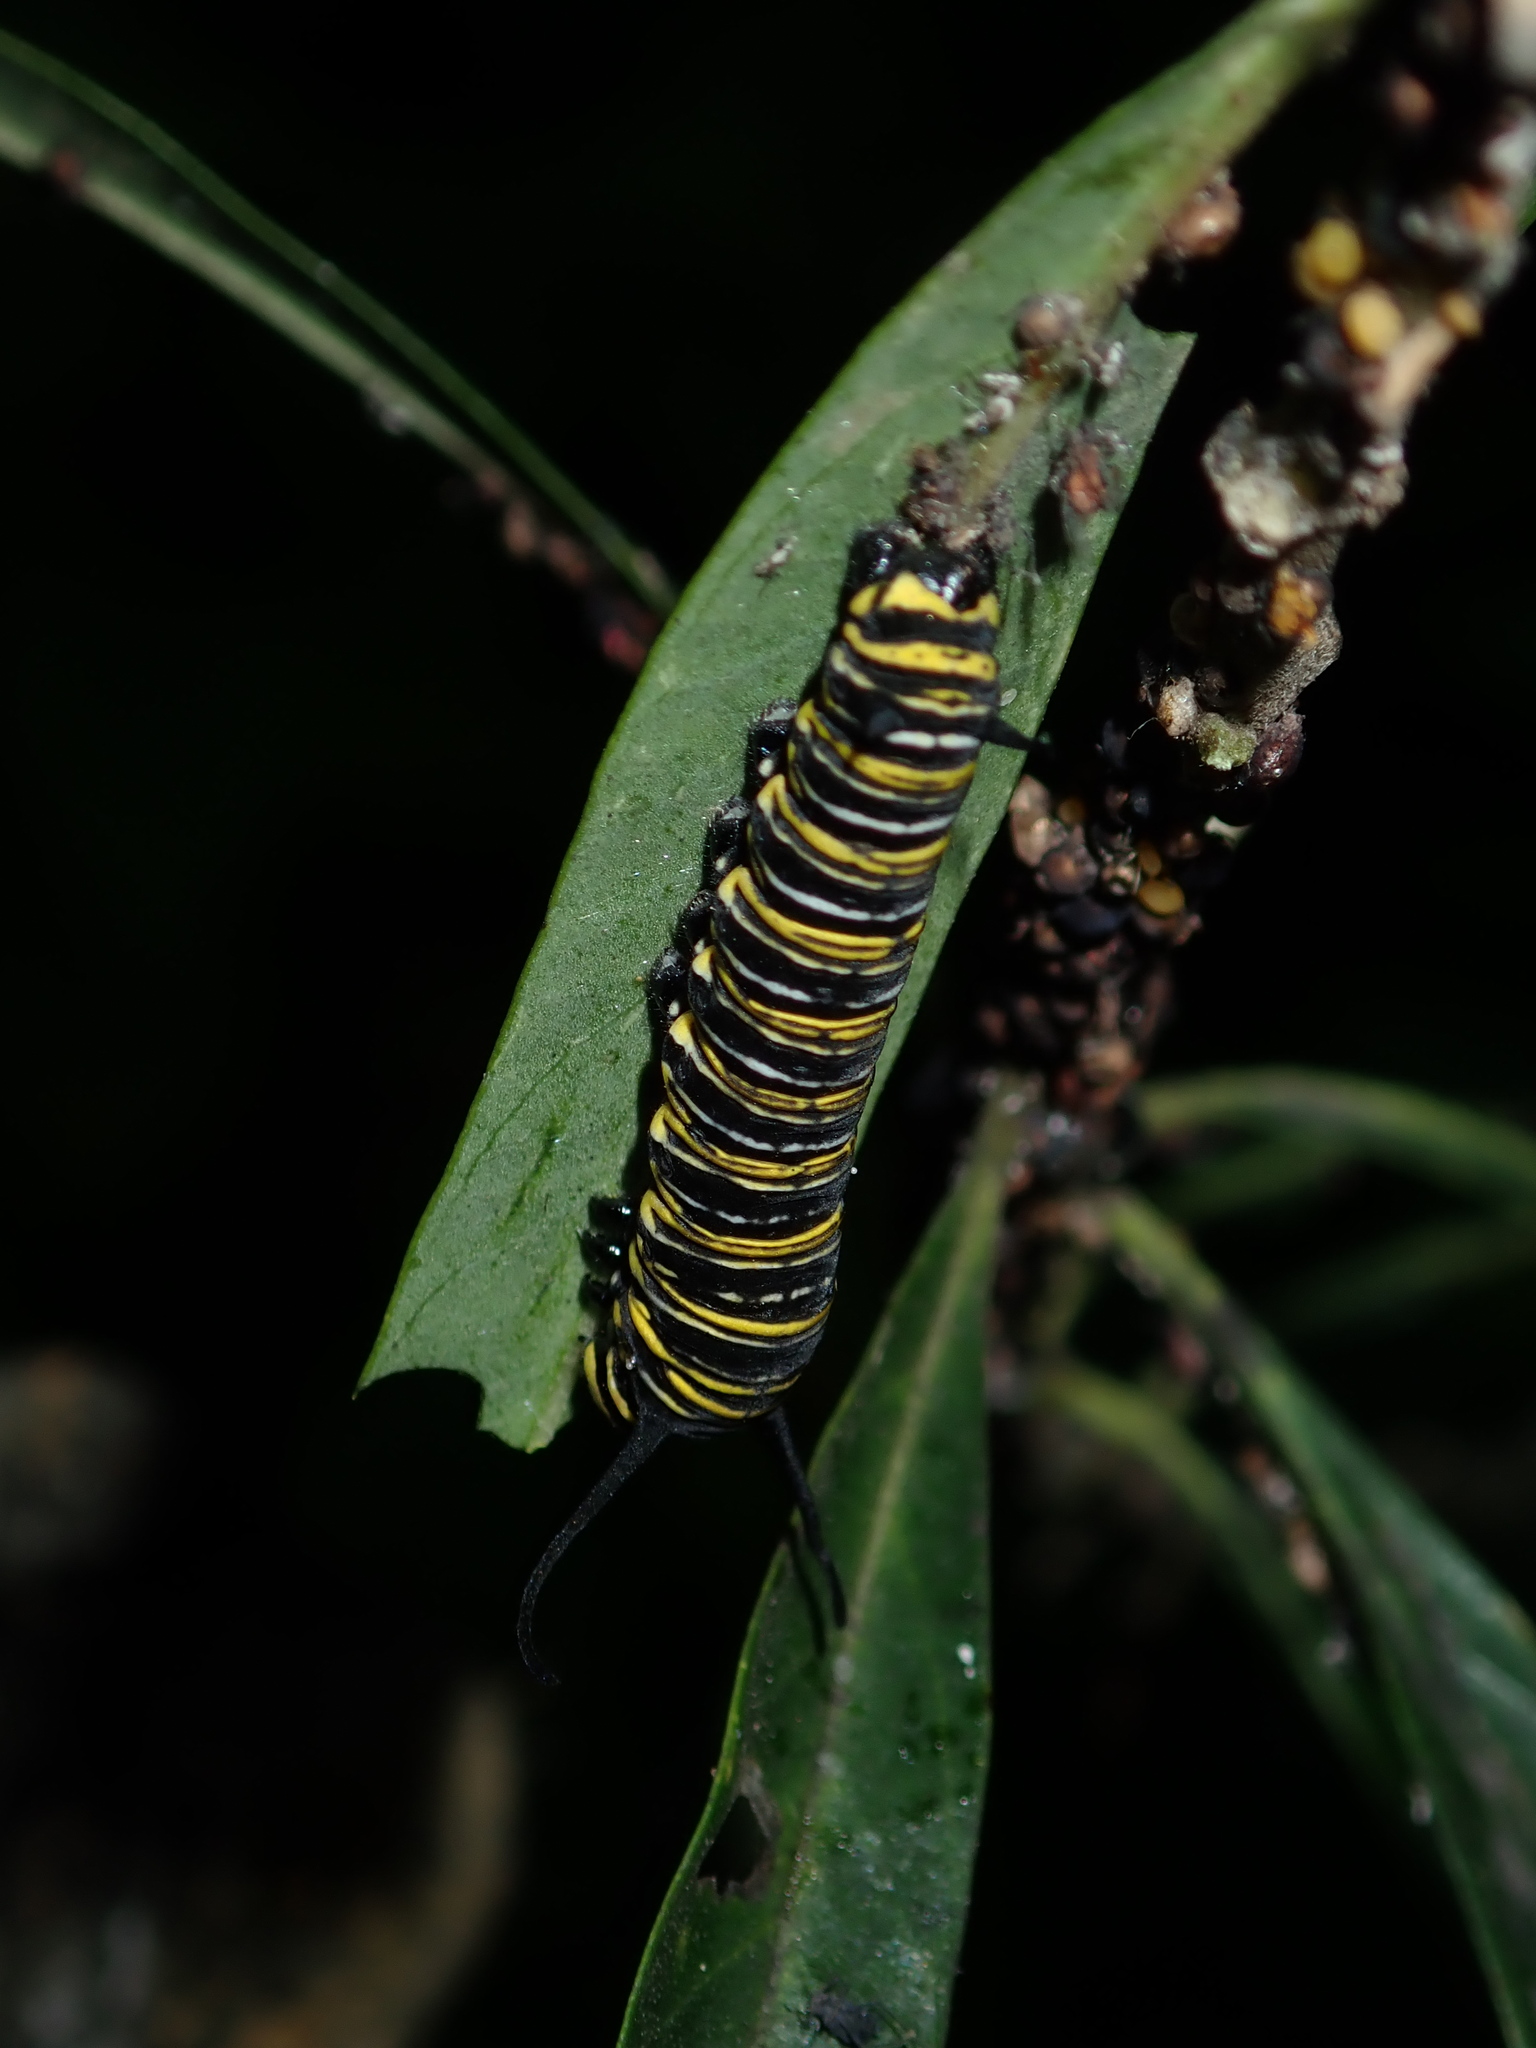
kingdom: Animalia
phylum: Arthropoda
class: Insecta
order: Lepidoptera
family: Nymphalidae
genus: Danaus
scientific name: Danaus plexippus
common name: Monarch
